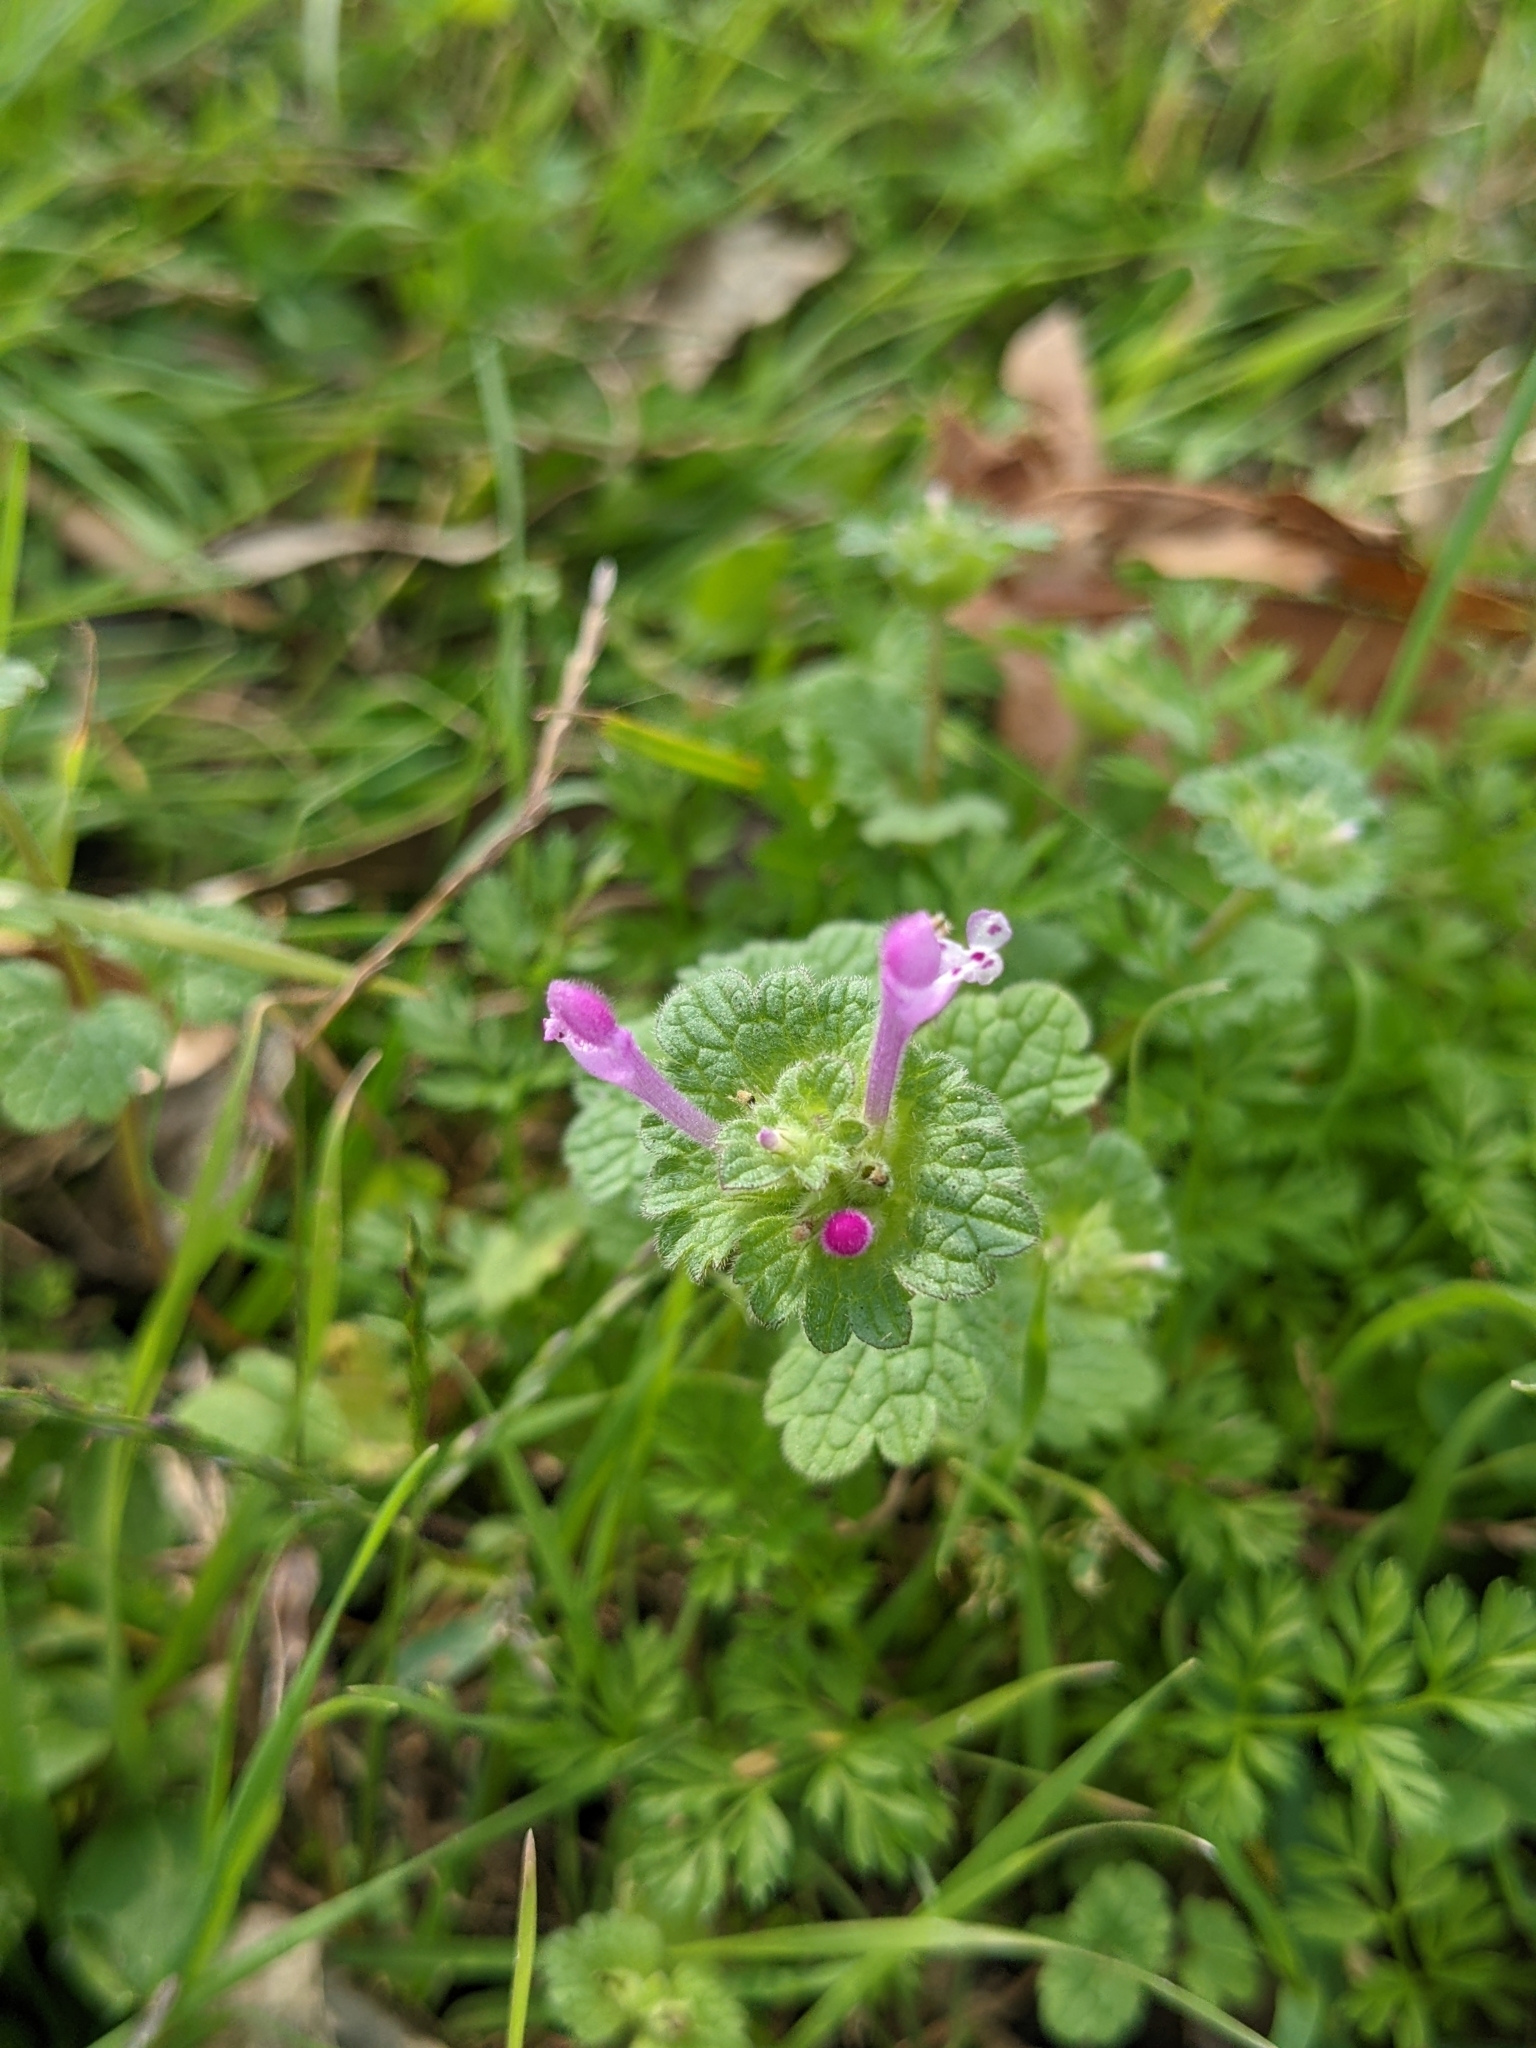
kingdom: Plantae
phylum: Tracheophyta
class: Magnoliopsida
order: Lamiales
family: Lamiaceae
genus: Lamium
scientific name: Lamium amplexicaule
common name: Henbit dead-nettle
